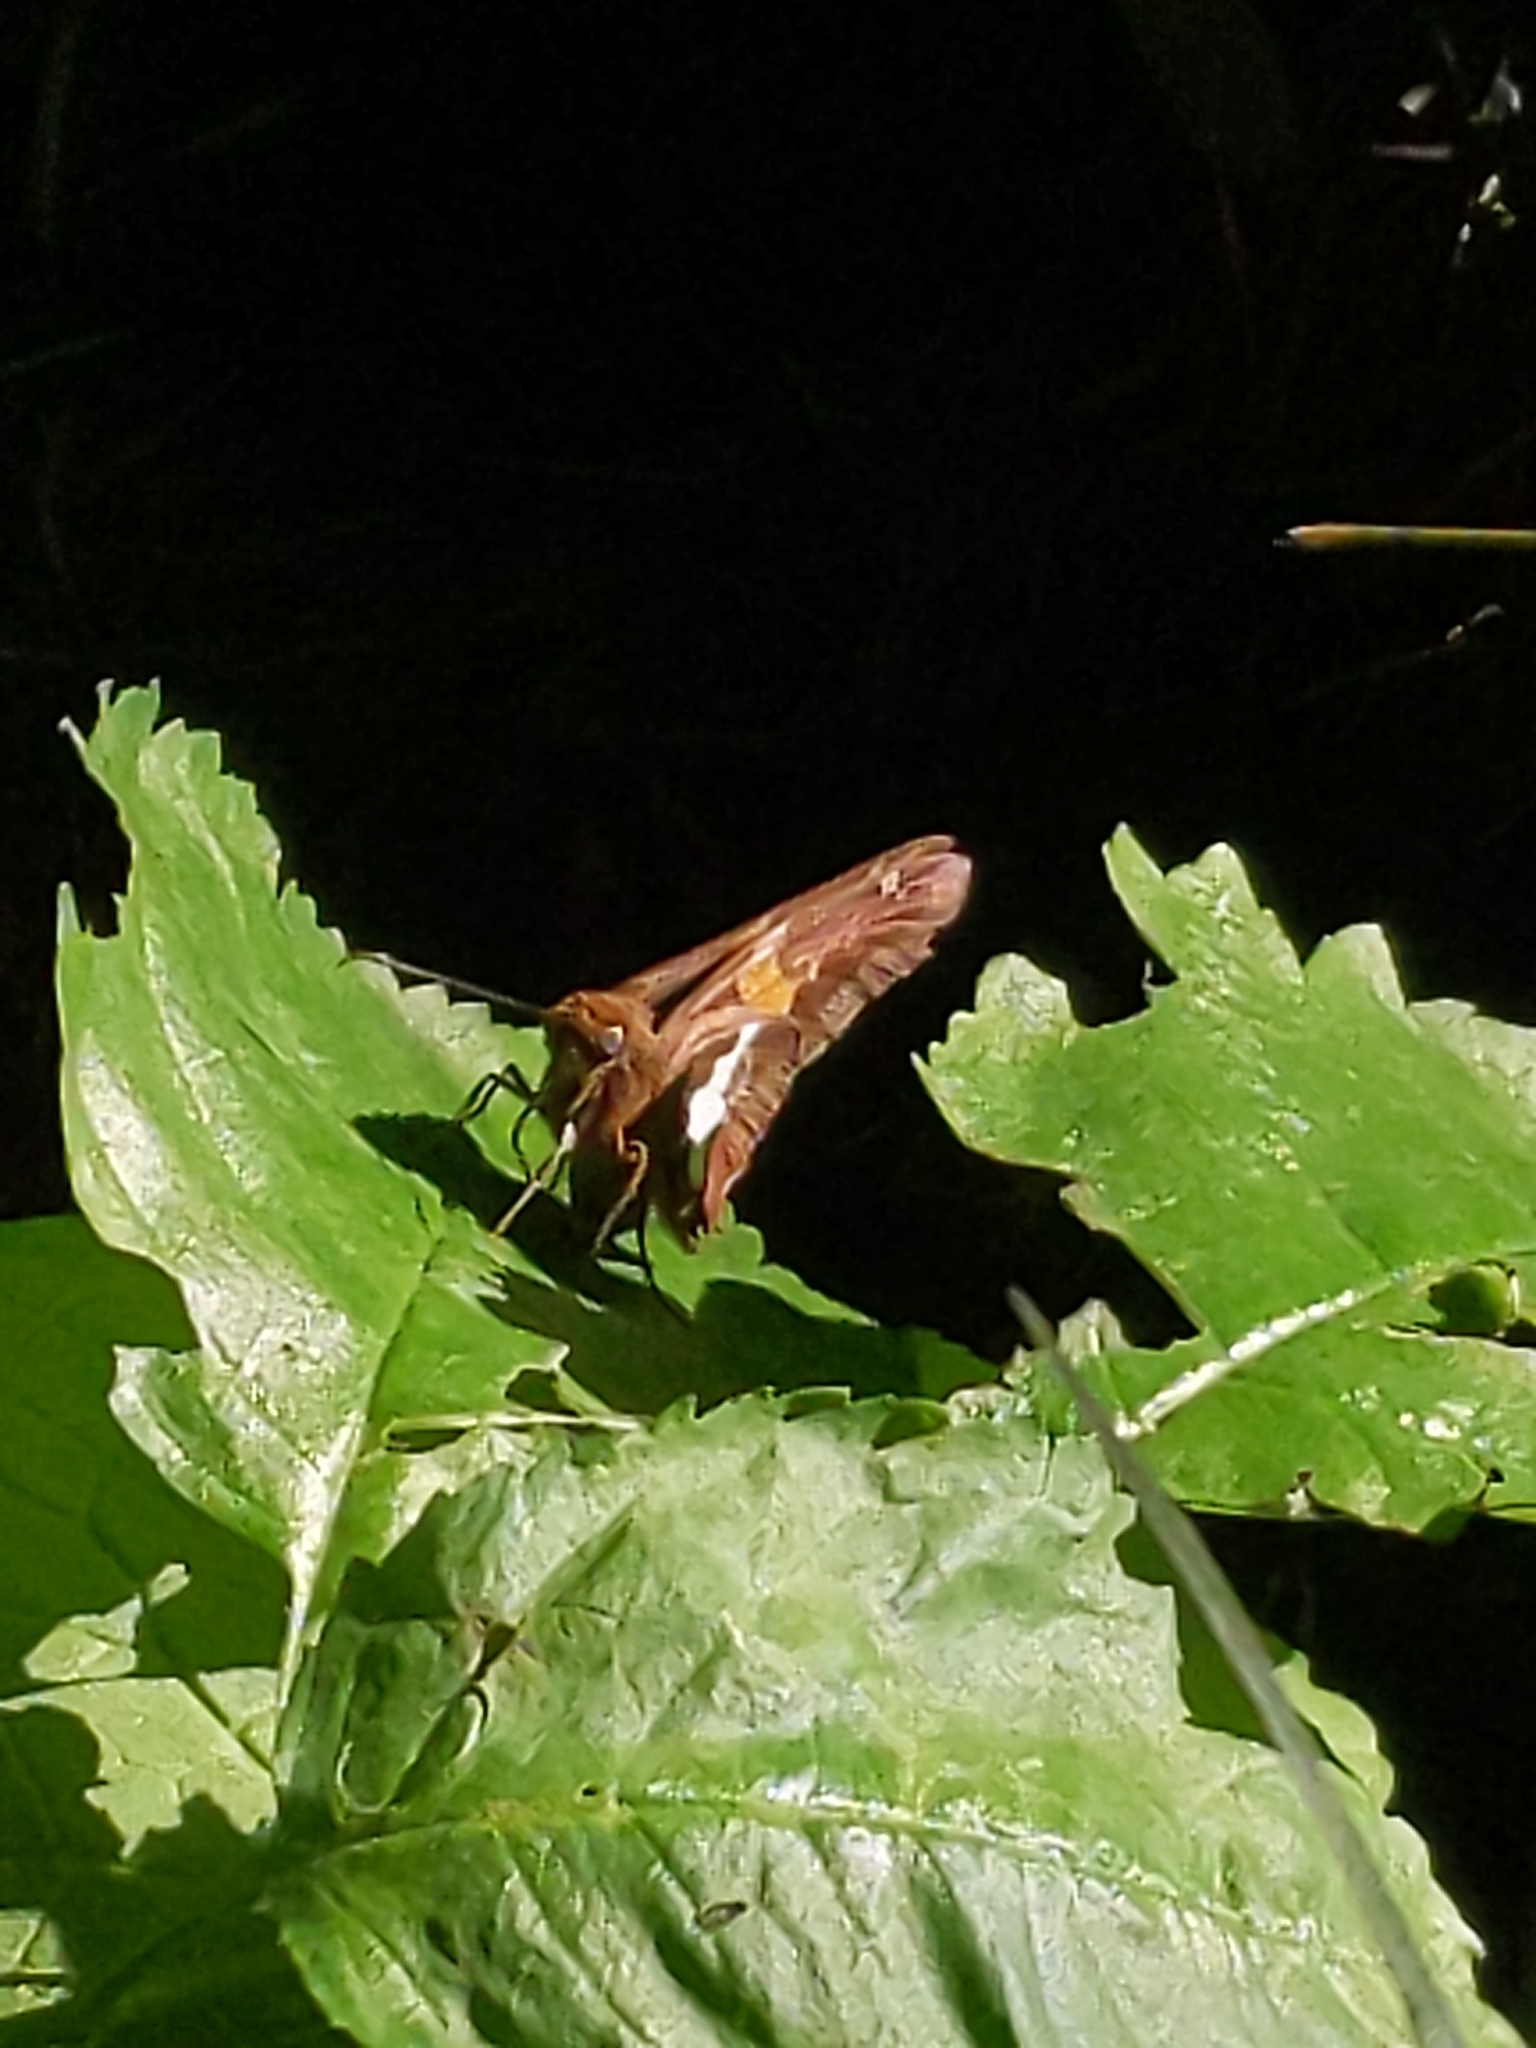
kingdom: Animalia
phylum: Arthropoda
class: Insecta
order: Lepidoptera
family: Hesperiidae
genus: Epargyreus
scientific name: Epargyreus clarus
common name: Silver-spotted skipper
